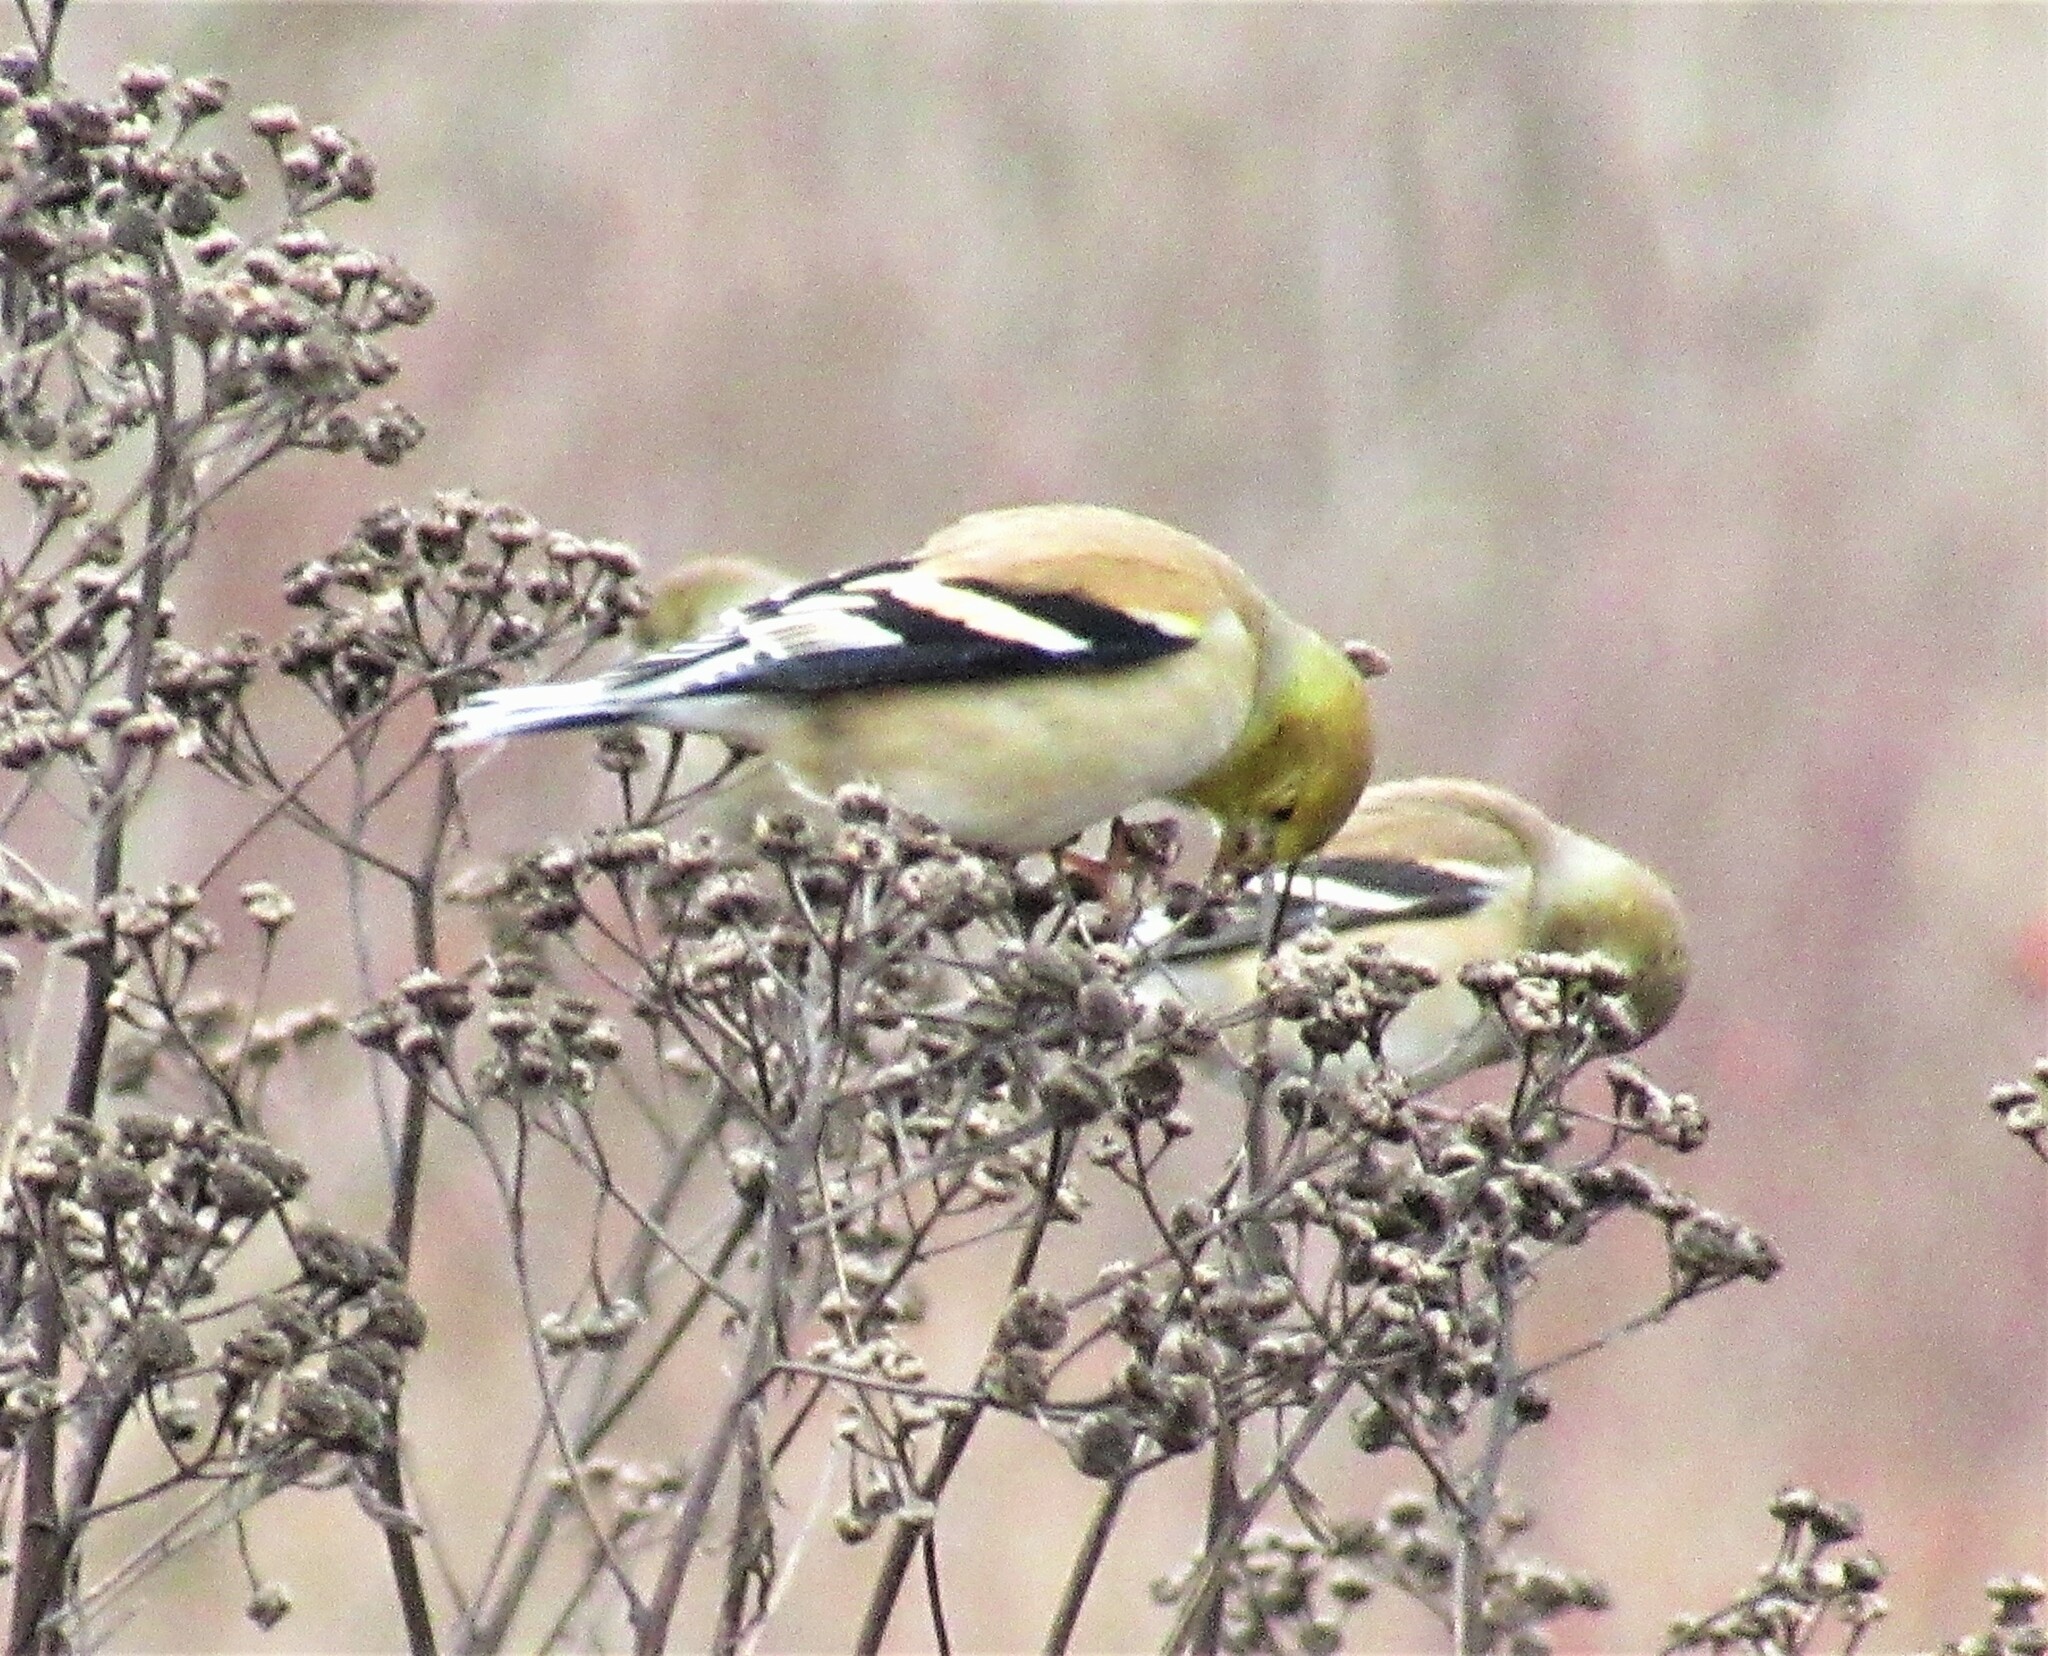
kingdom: Animalia
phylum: Chordata
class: Aves
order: Passeriformes
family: Fringillidae
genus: Spinus
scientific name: Spinus tristis
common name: American goldfinch
